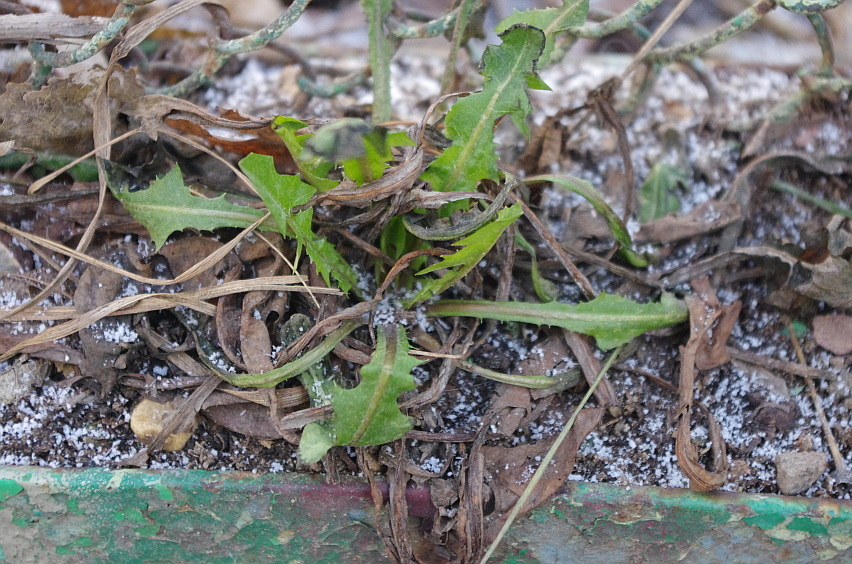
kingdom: Plantae
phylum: Tracheophyta
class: Magnoliopsida
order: Asterales
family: Asteraceae
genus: Taraxacum
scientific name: Taraxacum officinale
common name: Common dandelion
